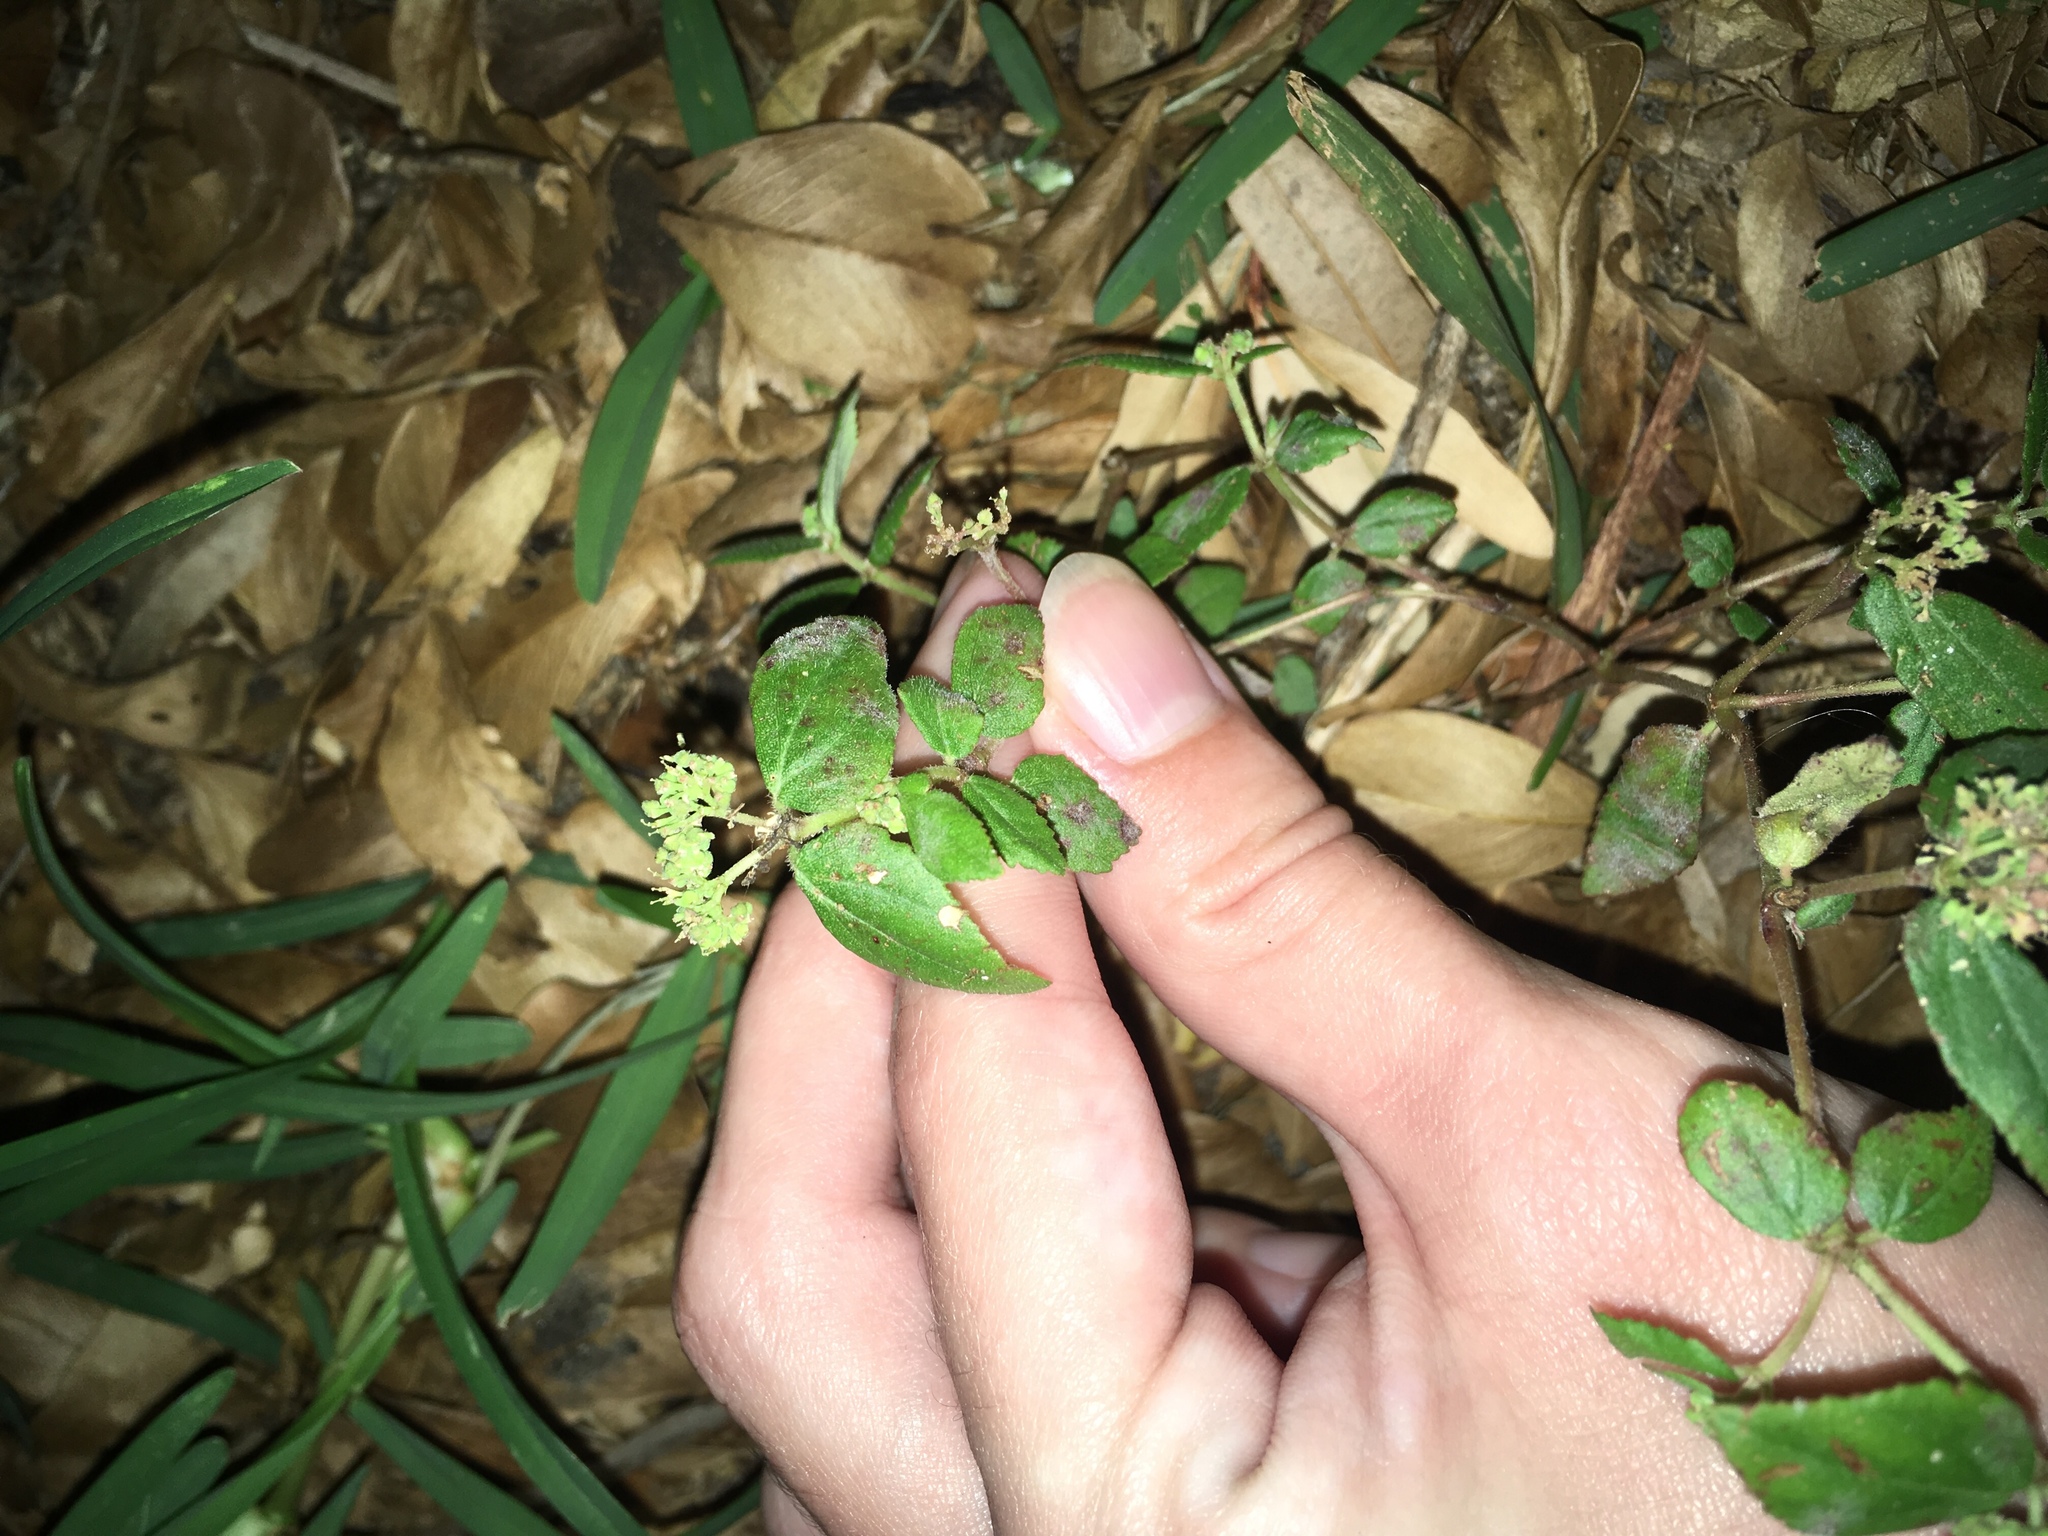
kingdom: Plantae
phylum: Tracheophyta
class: Magnoliopsida
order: Malpighiales
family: Euphorbiaceae
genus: Euphorbia
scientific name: Euphorbia ophthalmica
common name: Florida hammock sandmat
